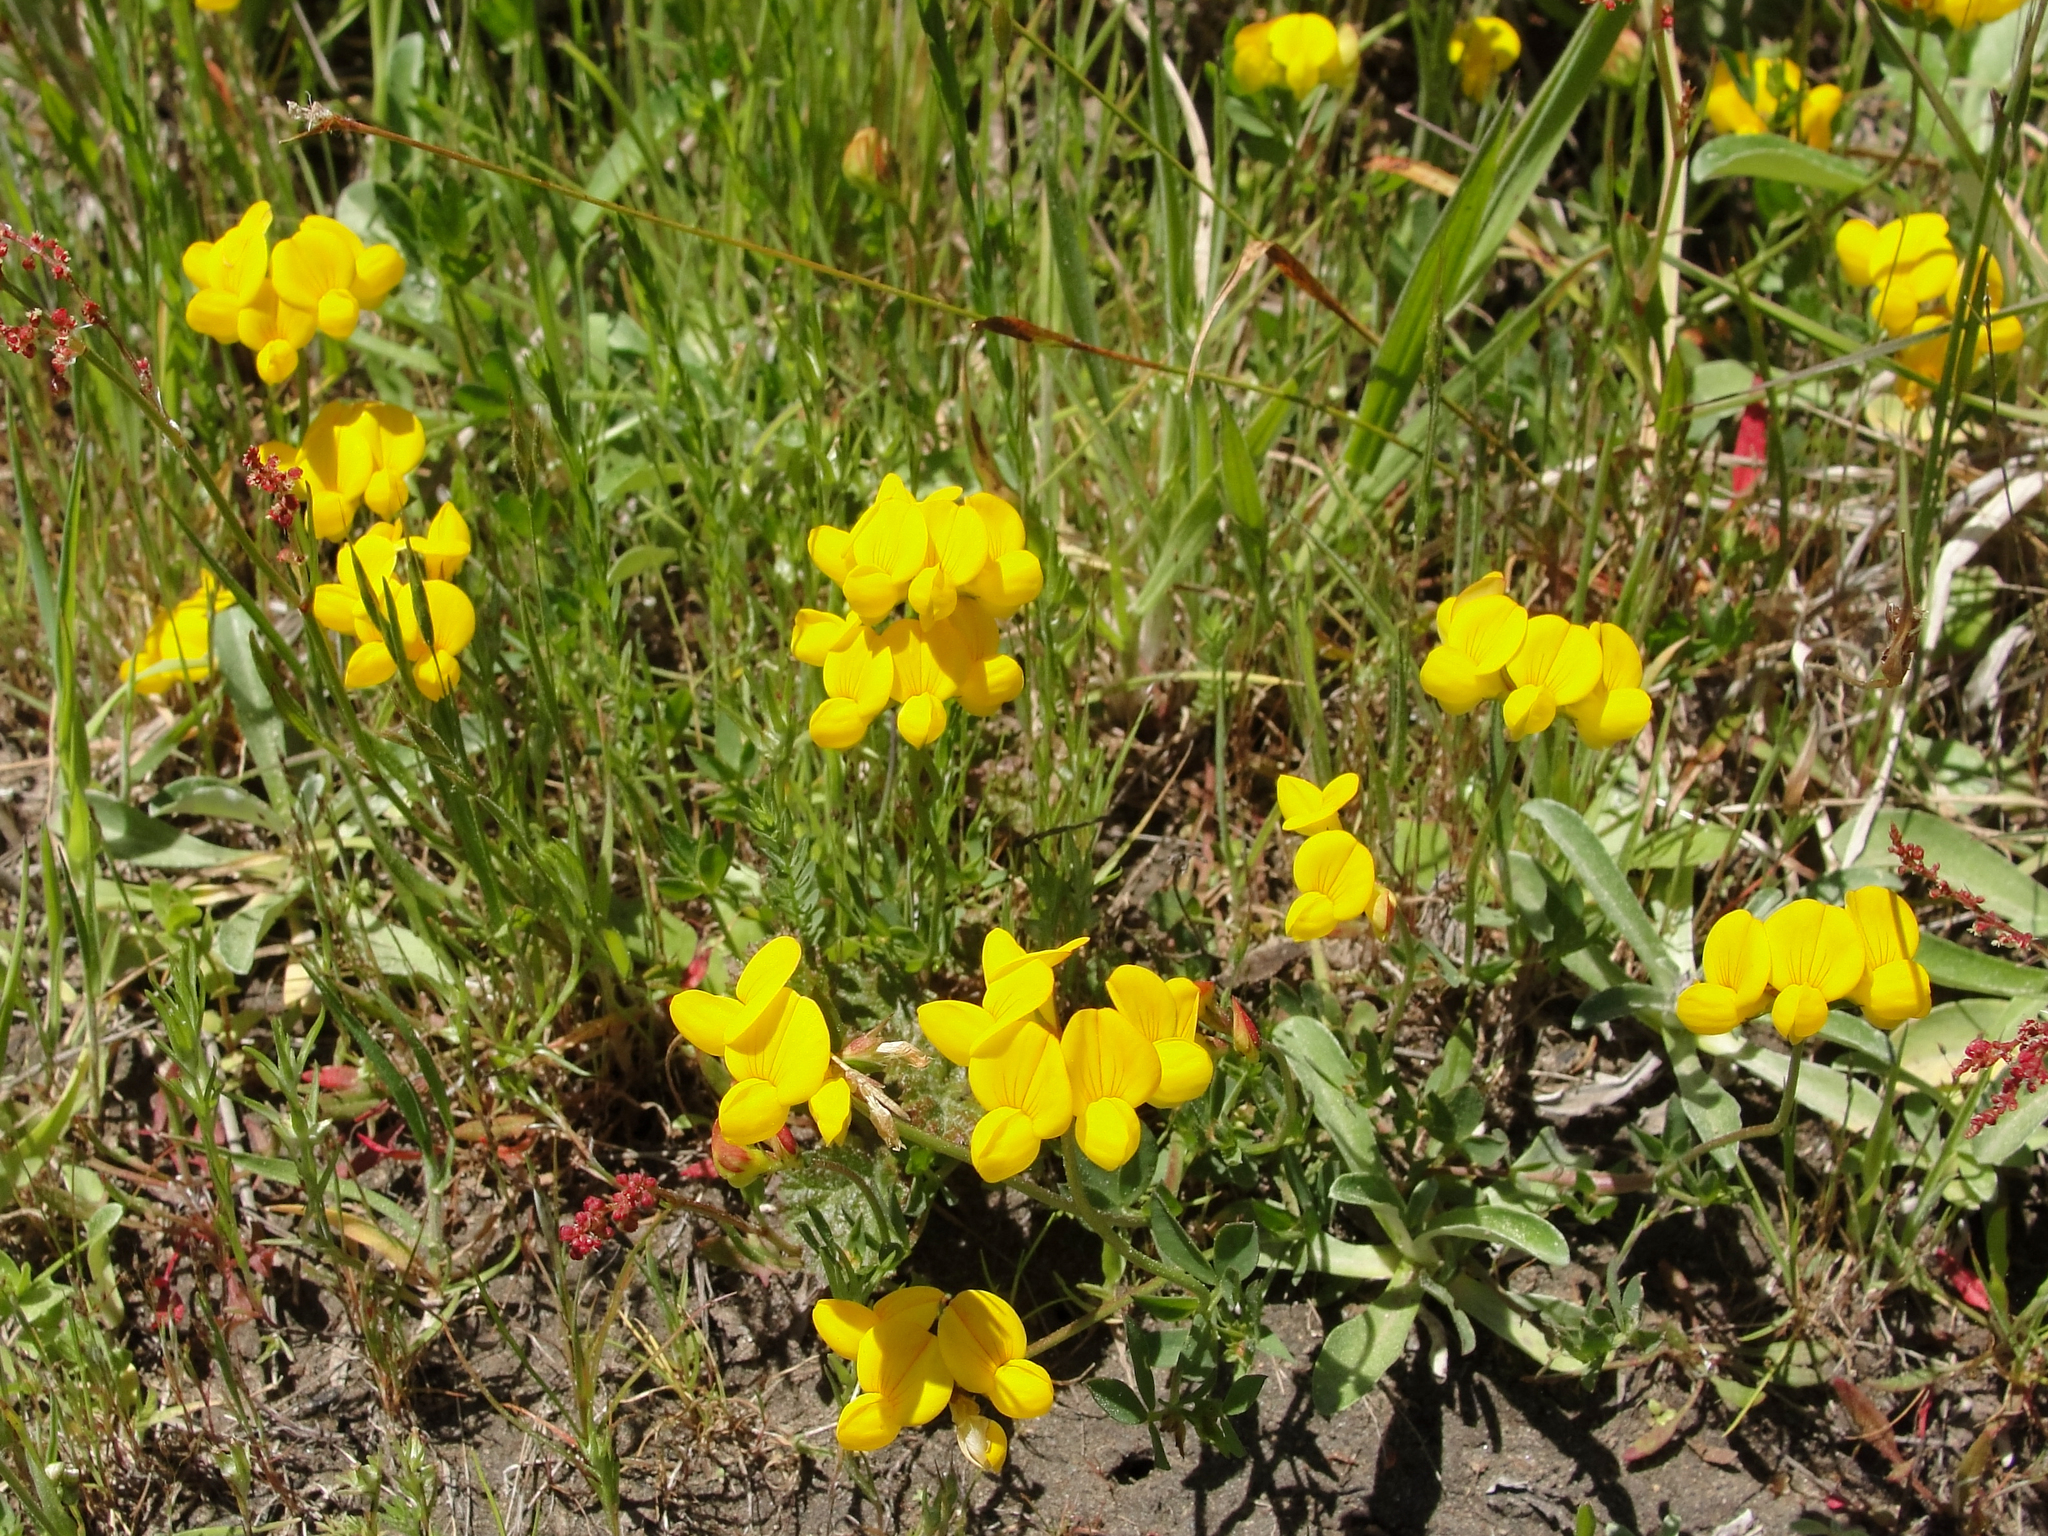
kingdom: Plantae
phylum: Tracheophyta
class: Magnoliopsida
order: Fabales
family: Fabaceae
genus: Lotus
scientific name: Lotus corniculatus
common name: Common bird's-foot-trefoil
